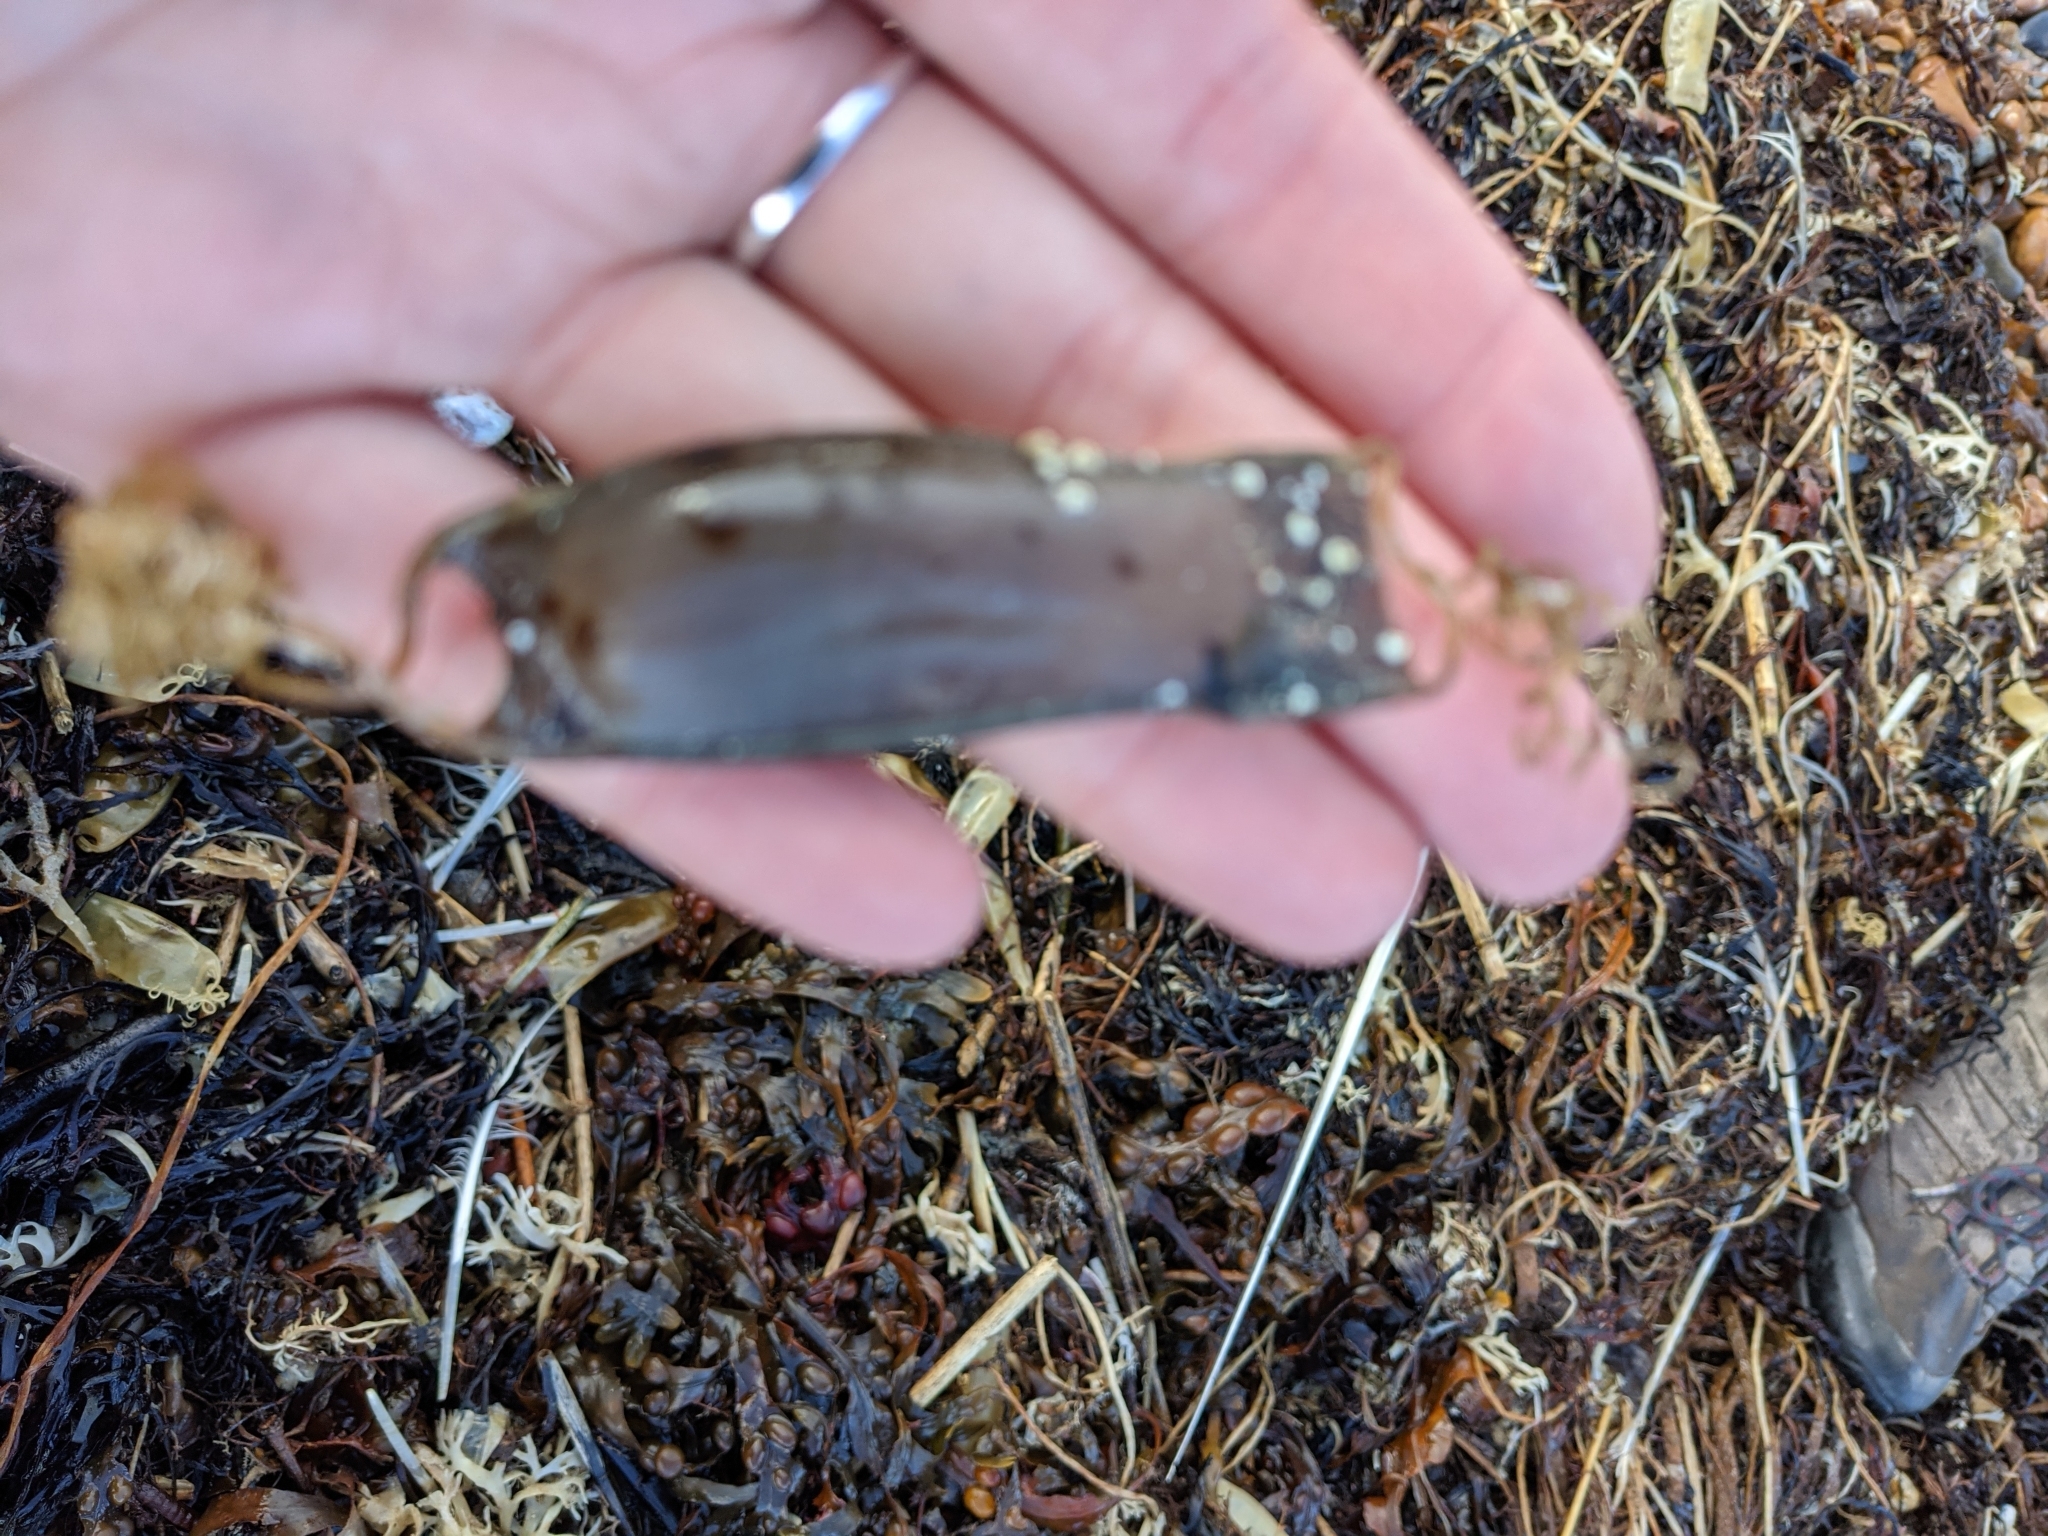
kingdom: Animalia
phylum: Chordata
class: Elasmobranchii
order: Carcharhiniformes
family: Scyliorhinidae
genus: Scyliorhinus
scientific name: Scyliorhinus canicula
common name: Lesser spotted dogfish
